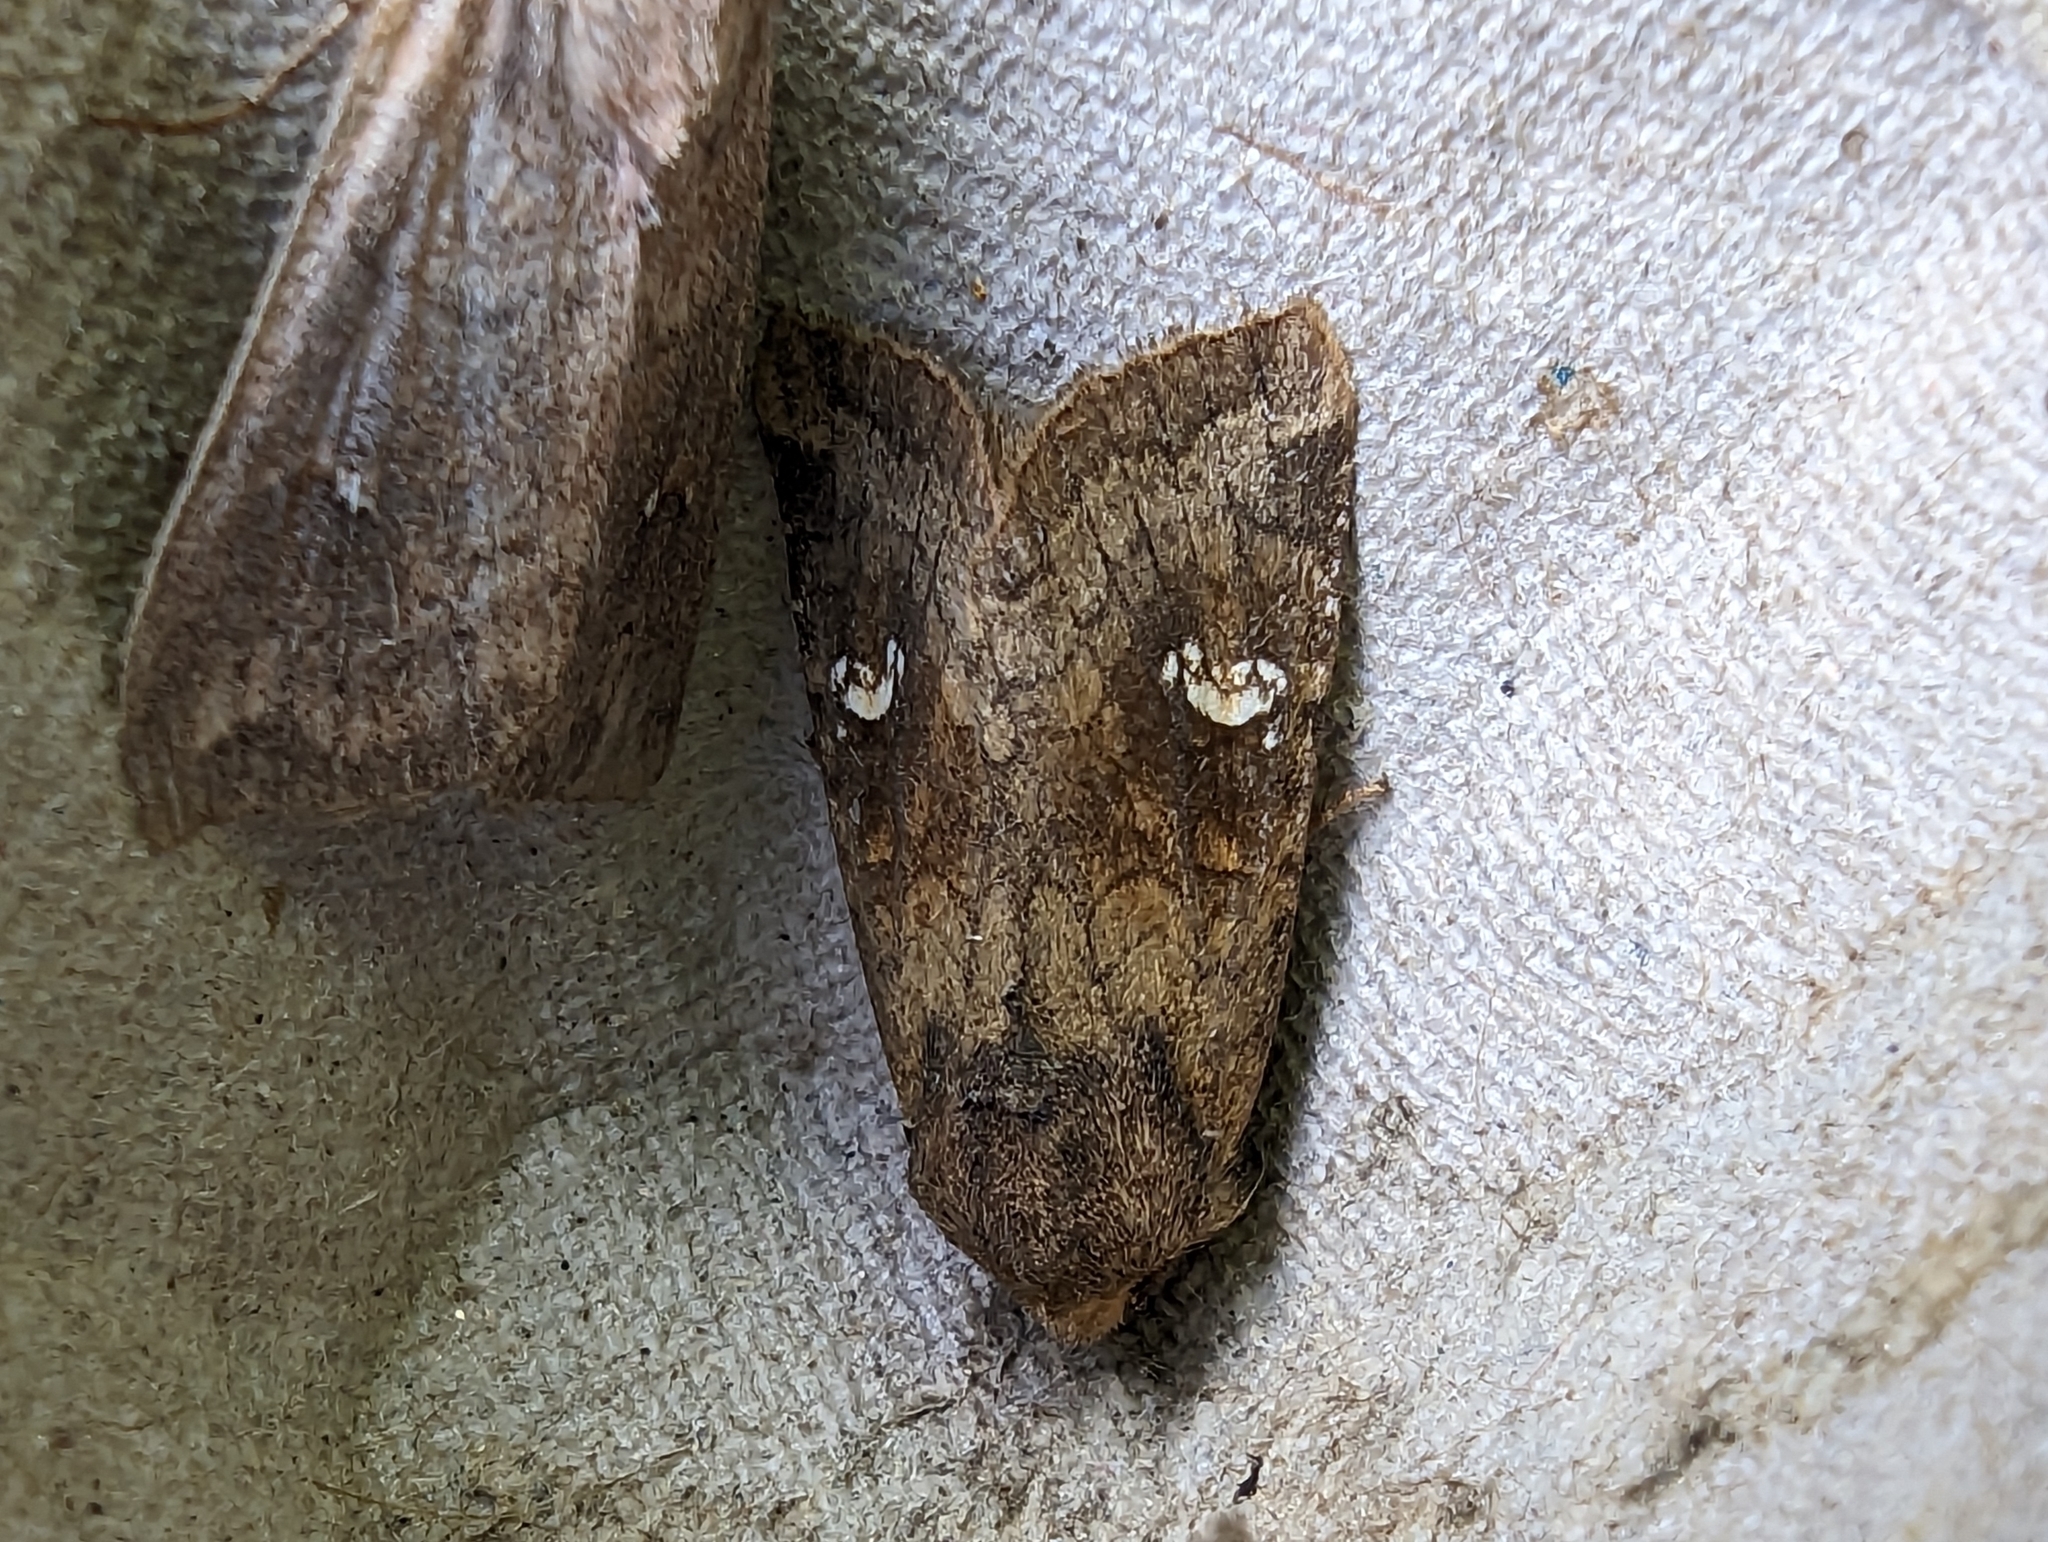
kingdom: Animalia
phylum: Arthropoda
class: Insecta
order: Lepidoptera
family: Noctuidae
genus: Amphipoea
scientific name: Amphipoea
